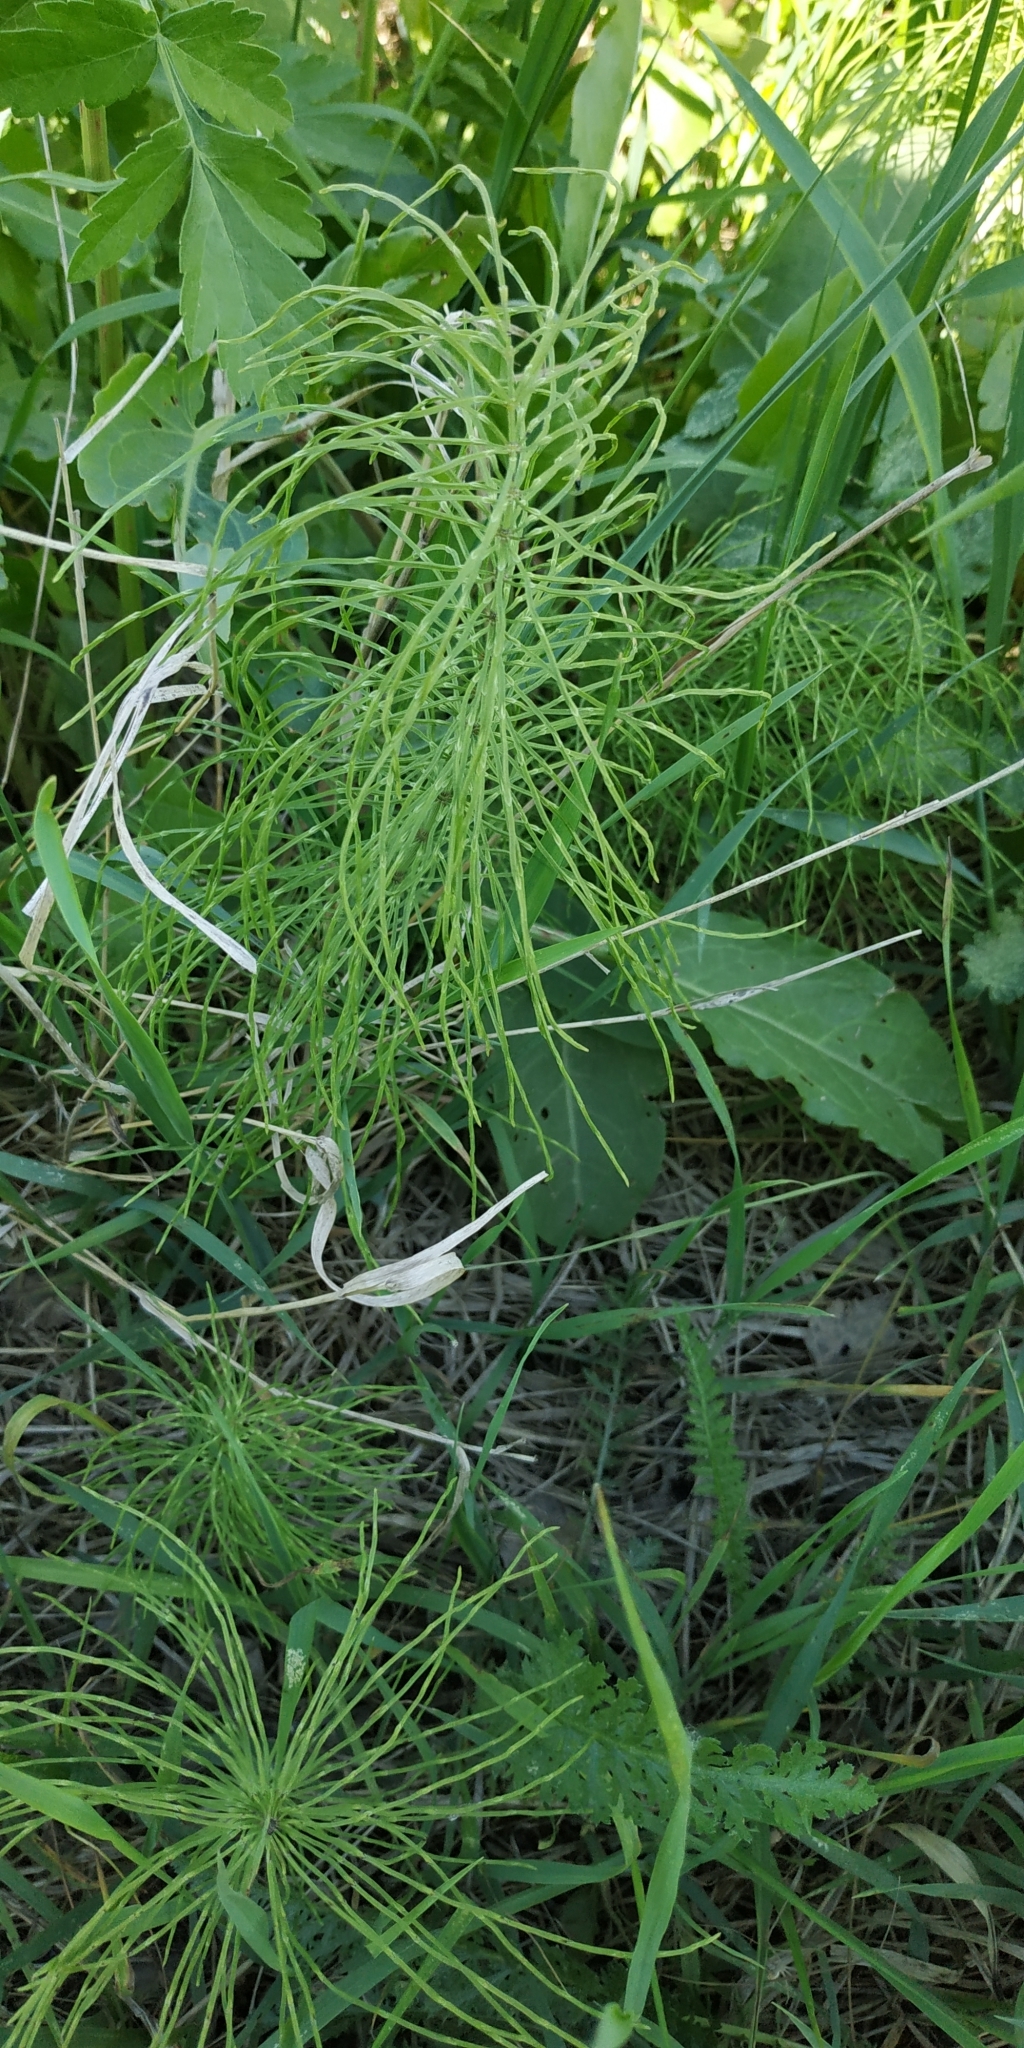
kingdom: Plantae
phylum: Tracheophyta
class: Polypodiopsida
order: Equisetales
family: Equisetaceae
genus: Equisetum
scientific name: Equisetum pratense
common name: Meadow horsetail
